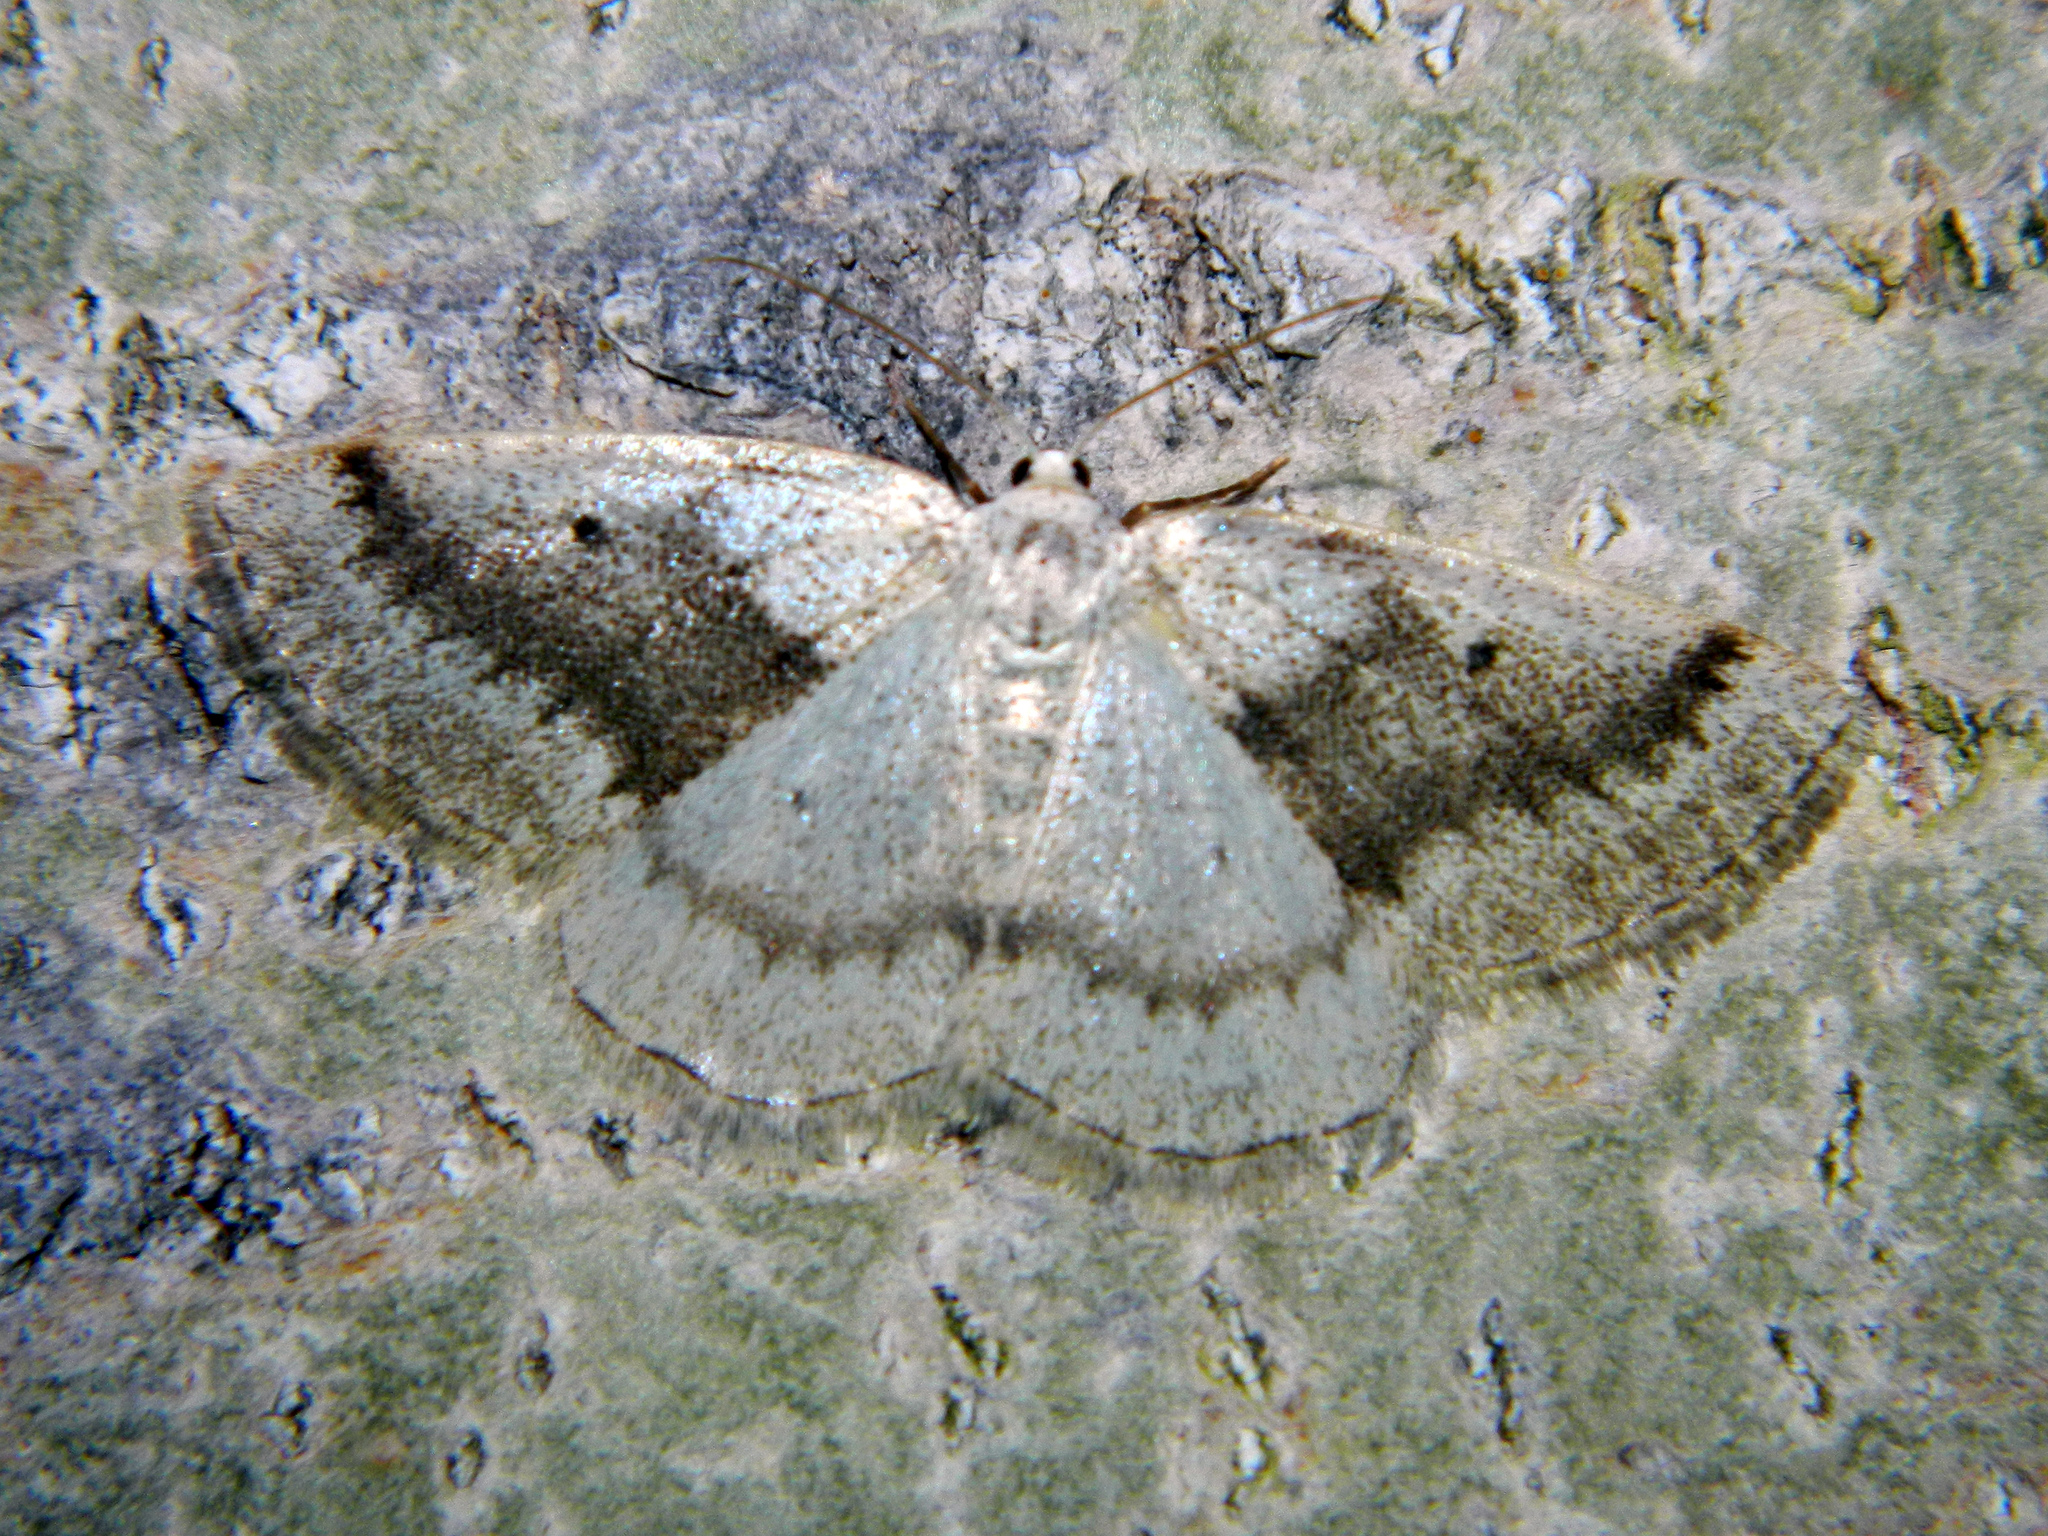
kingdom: Animalia
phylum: Arthropoda
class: Insecta
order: Lepidoptera
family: Geometridae
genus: Lomographa
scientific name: Lomographa glomeraria
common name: Gray spring moth
